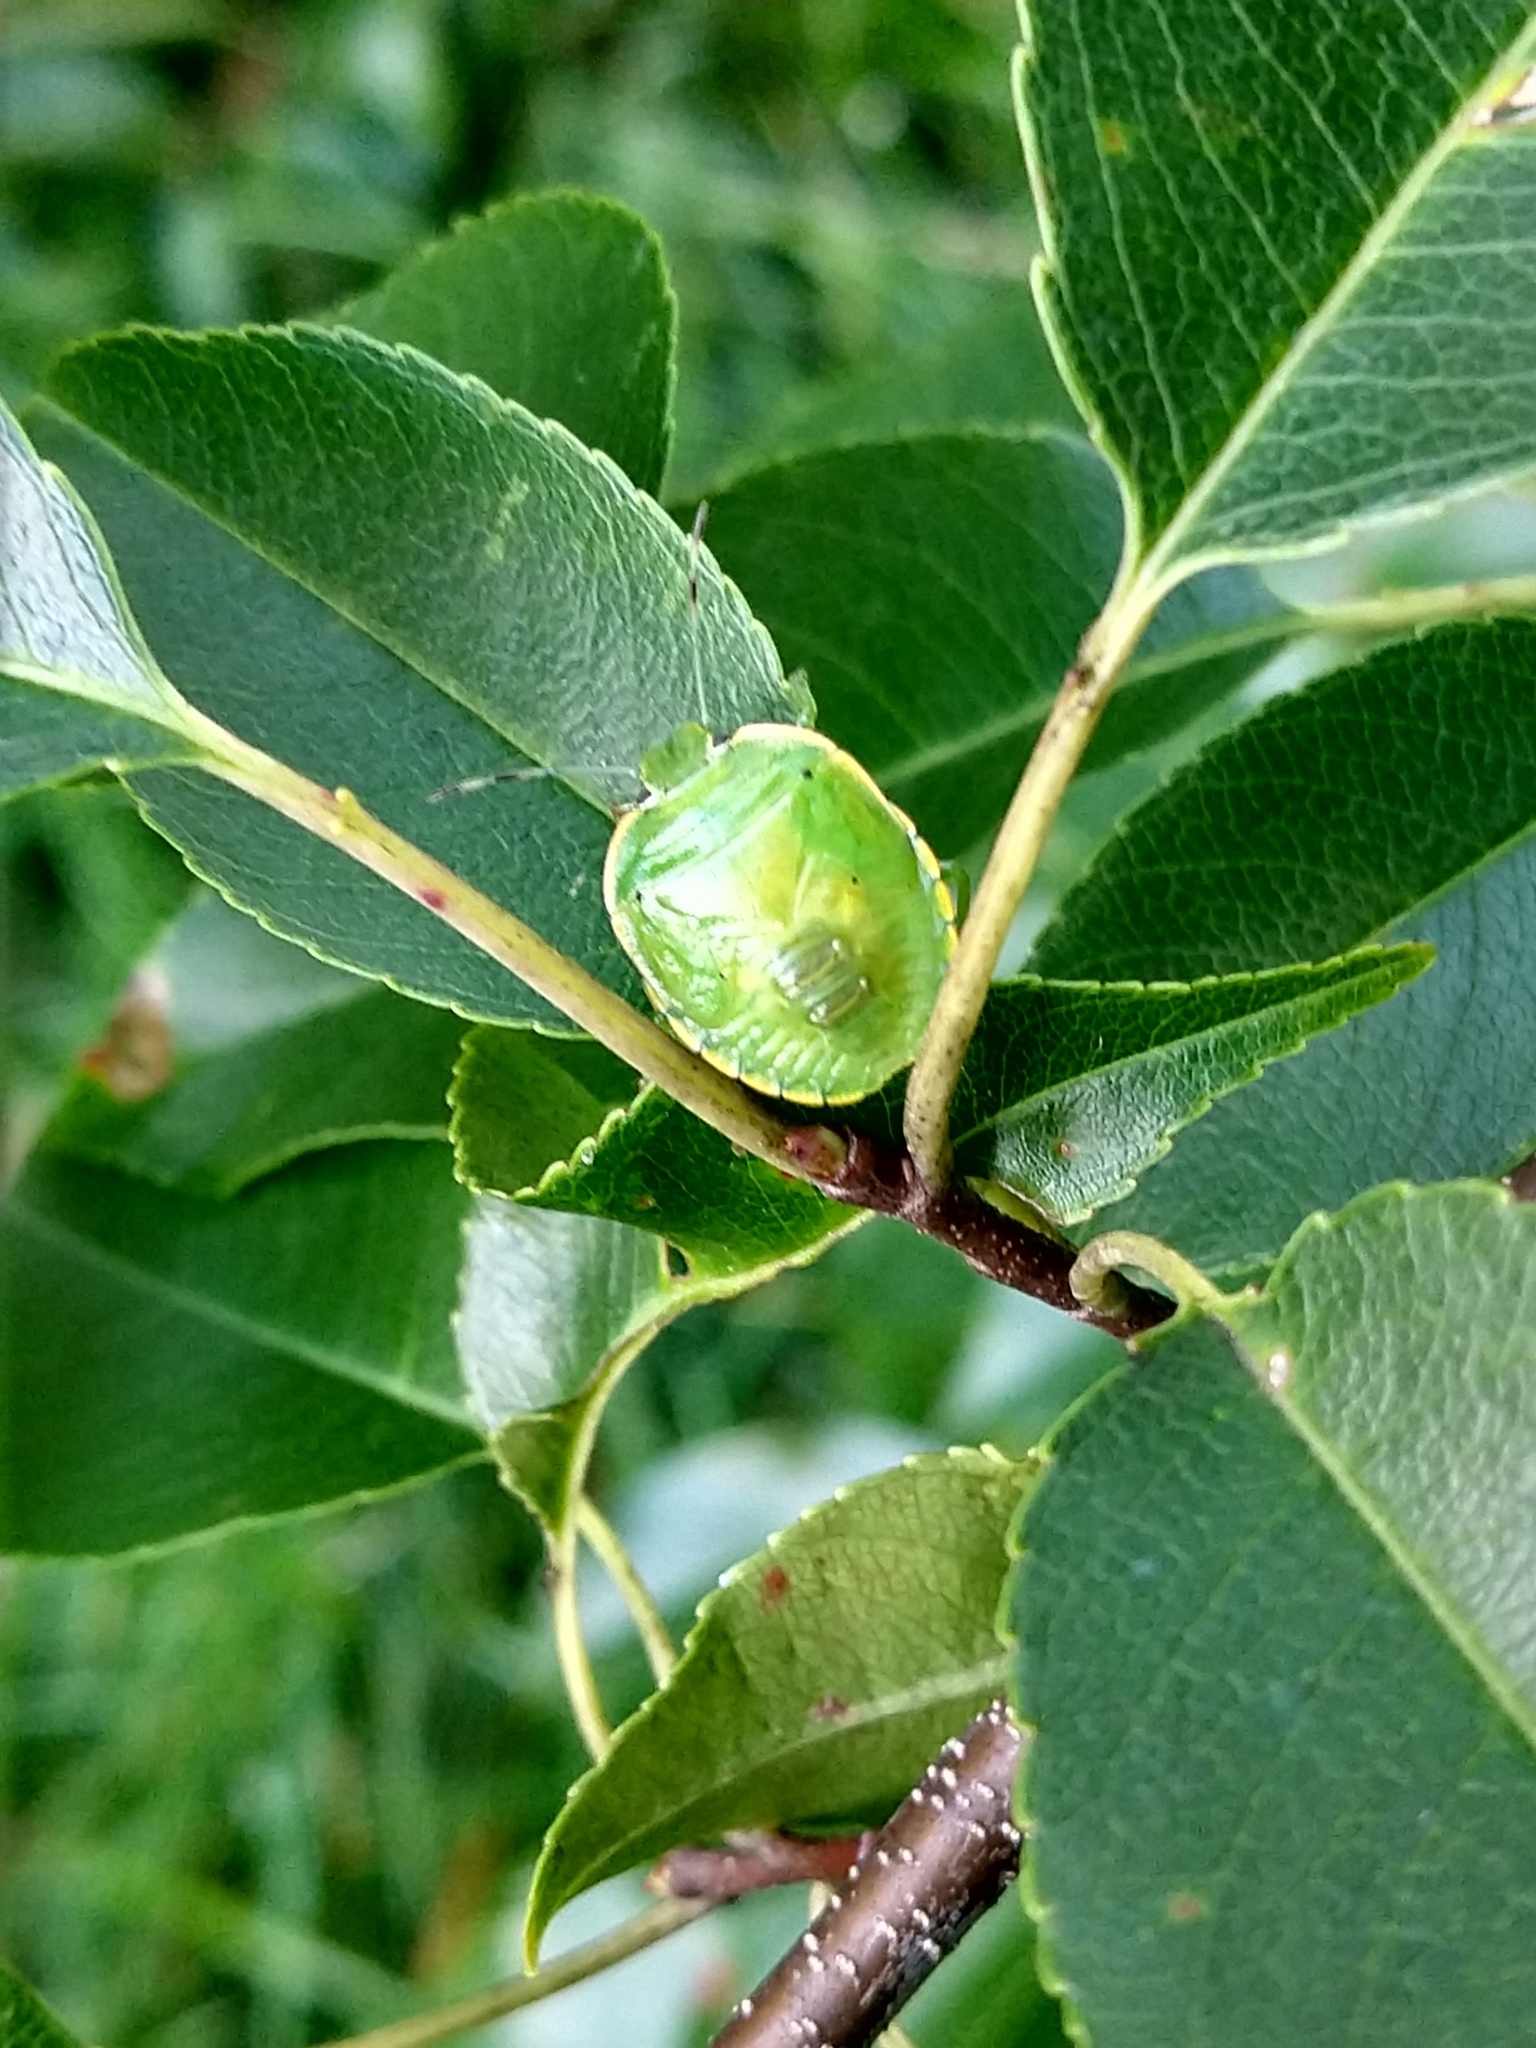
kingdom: Animalia
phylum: Arthropoda
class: Insecta
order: Hemiptera
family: Pentatomidae
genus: Chinavia
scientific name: Chinavia hilaris
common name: Green stink bug
